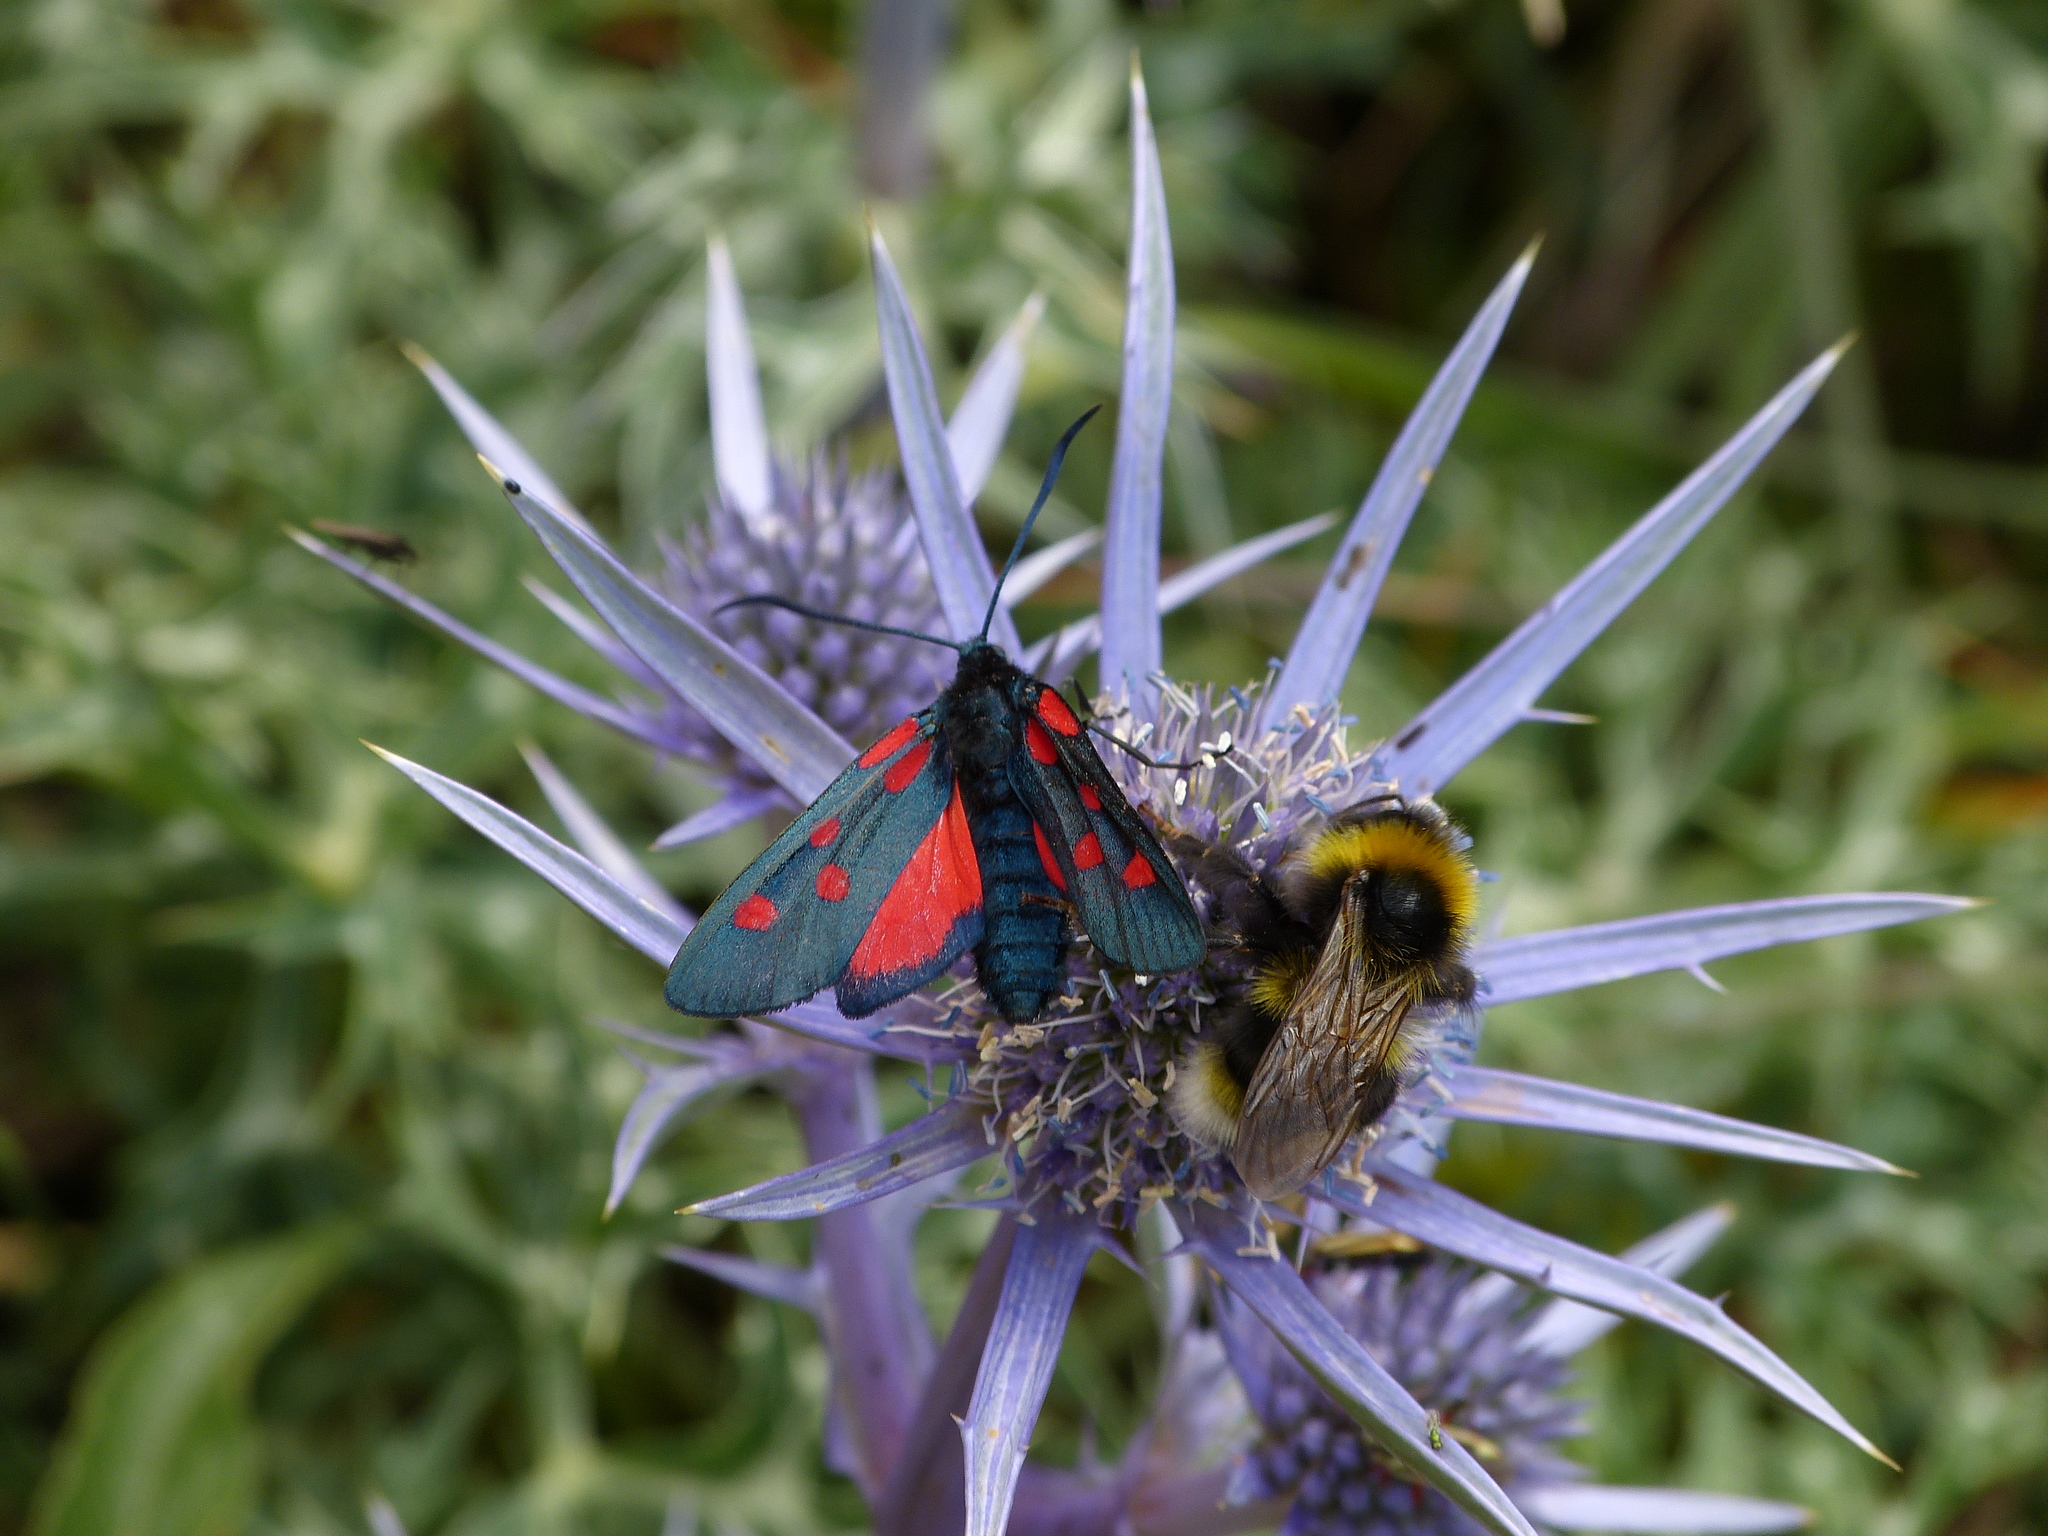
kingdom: Animalia
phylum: Arthropoda
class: Insecta
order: Lepidoptera
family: Zygaenidae
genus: Zygaena
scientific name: Zygaena lonicerae
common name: Narrow-bordered five-spot burnet
